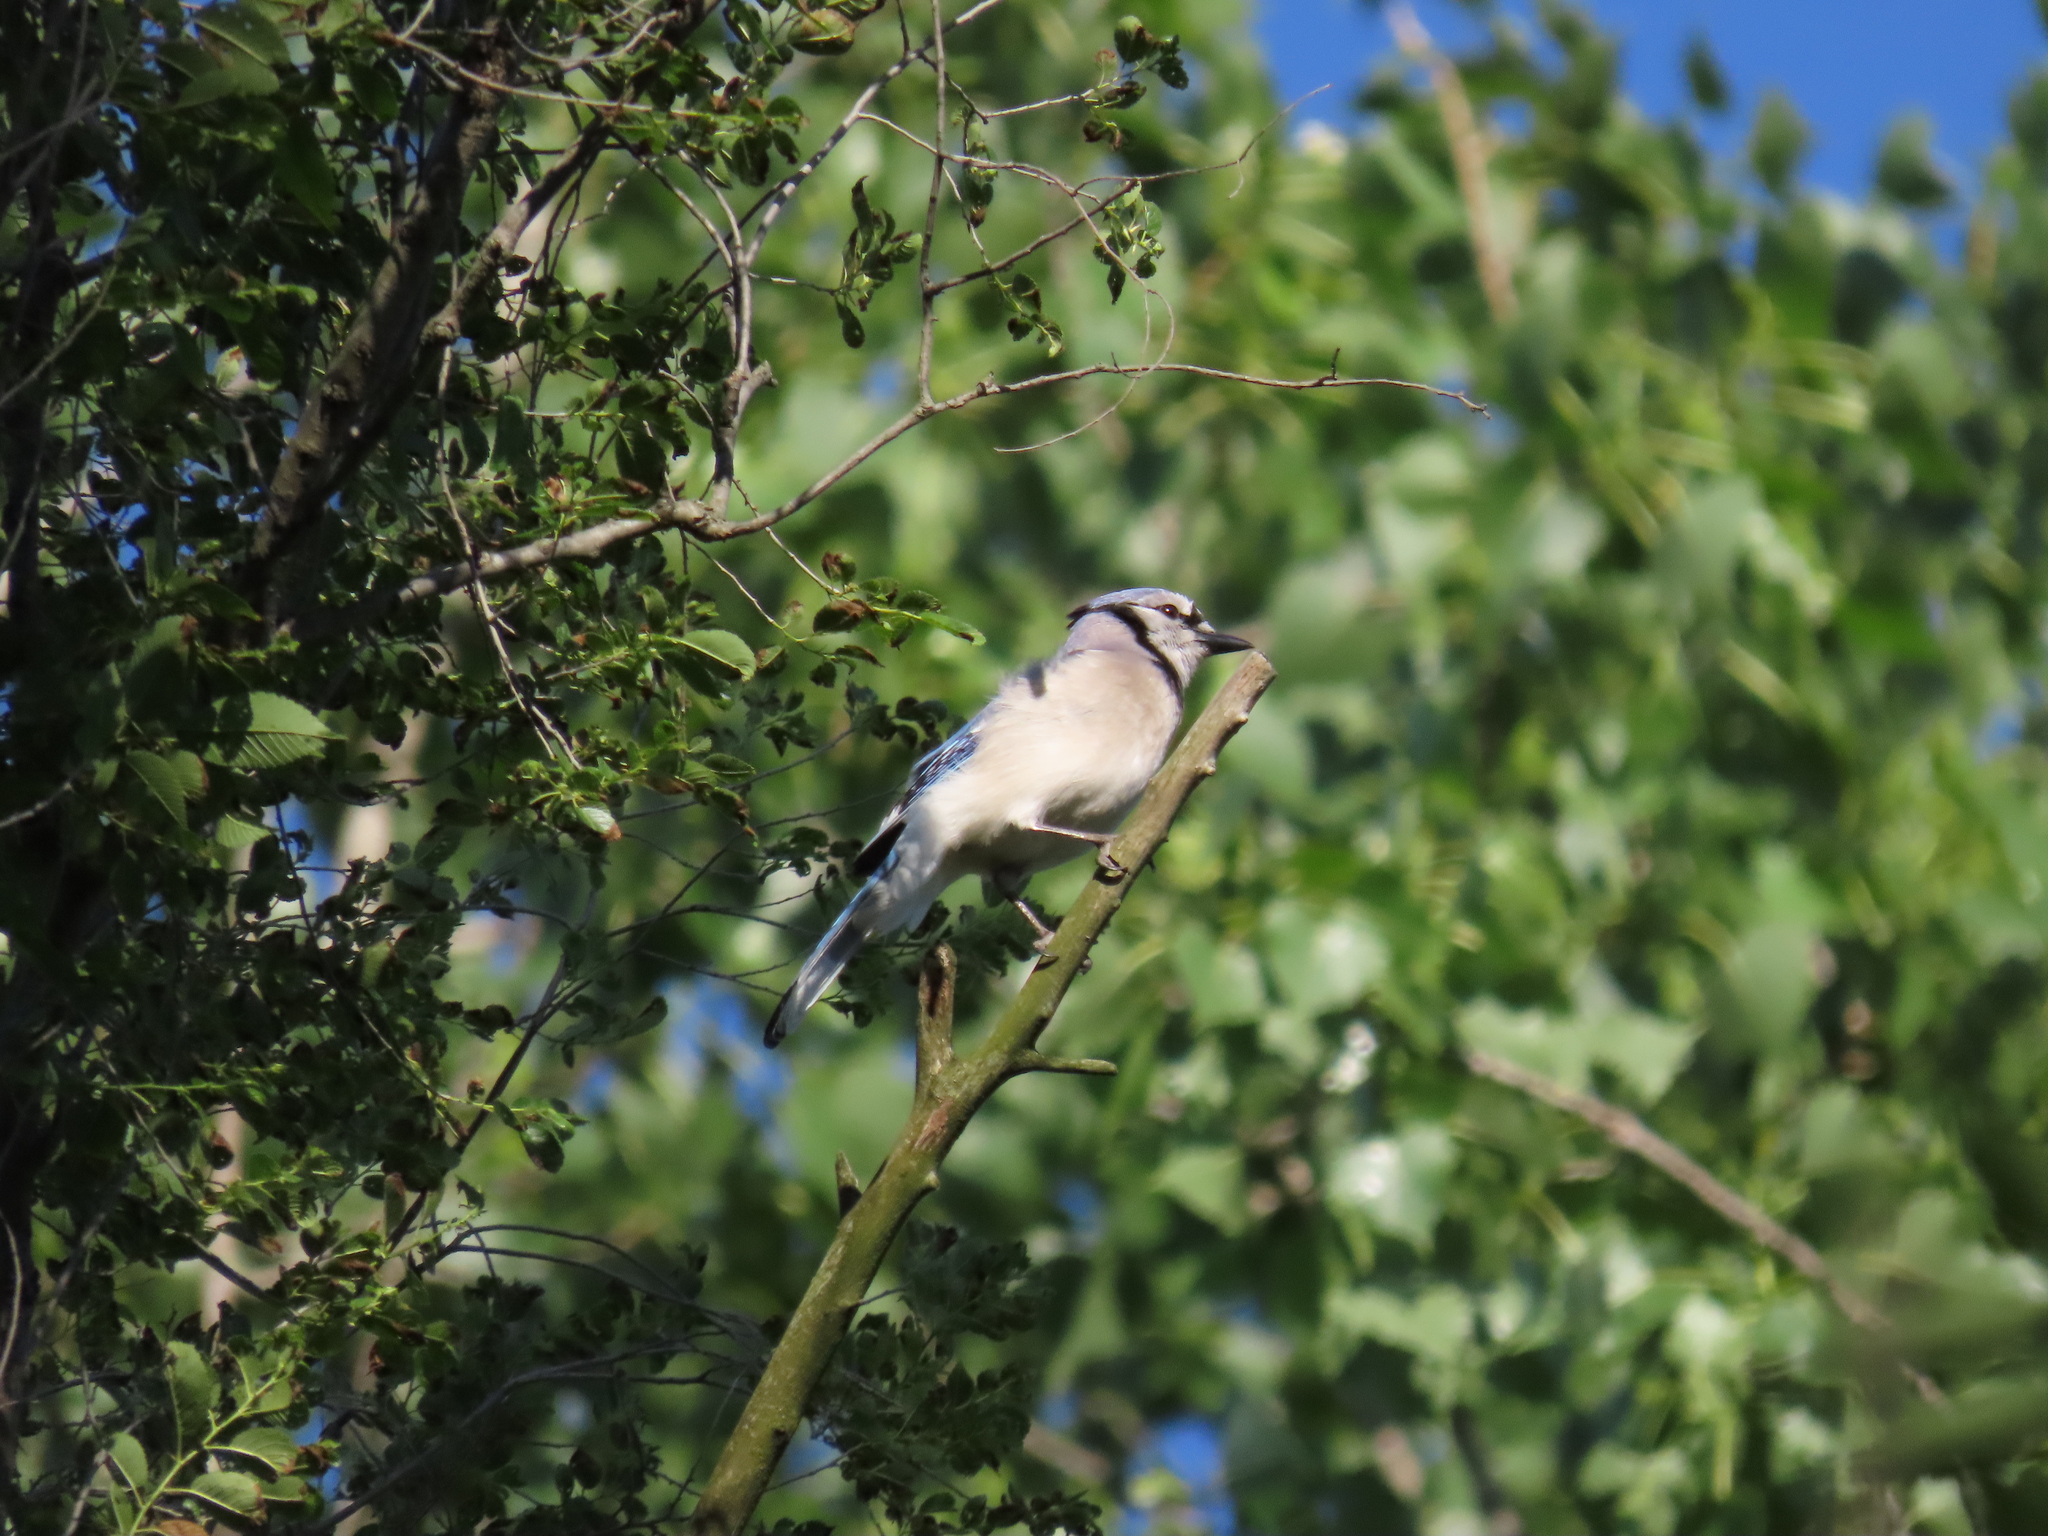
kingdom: Animalia
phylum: Chordata
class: Aves
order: Passeriformes
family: Corvidae
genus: Cyanocitta
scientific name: Cyanocitta cristata
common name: Blue jay
